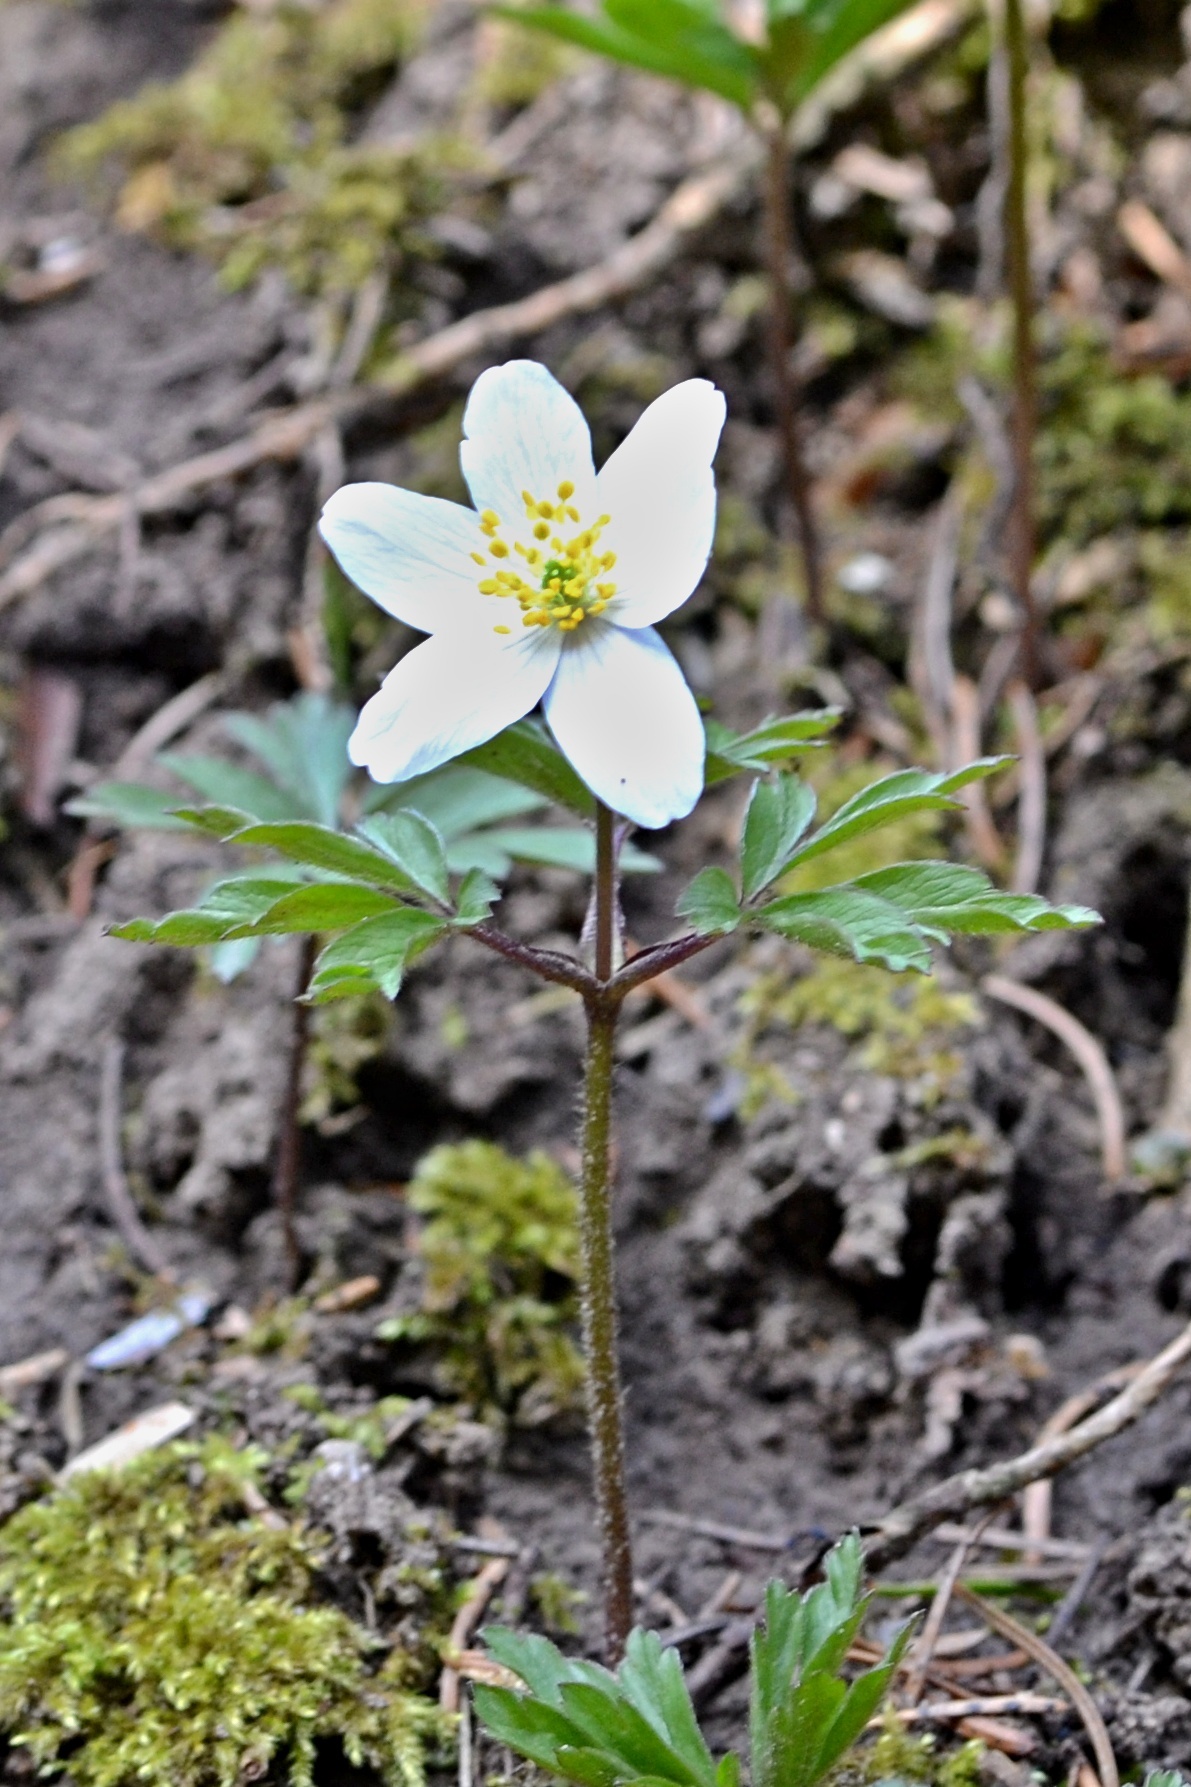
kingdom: Plantae
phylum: Tracheophyta
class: Magnoliopsida
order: Ranunculales
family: Ranunculaceae
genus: Anemone
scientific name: Anemone nemorosa
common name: Wood anemone
